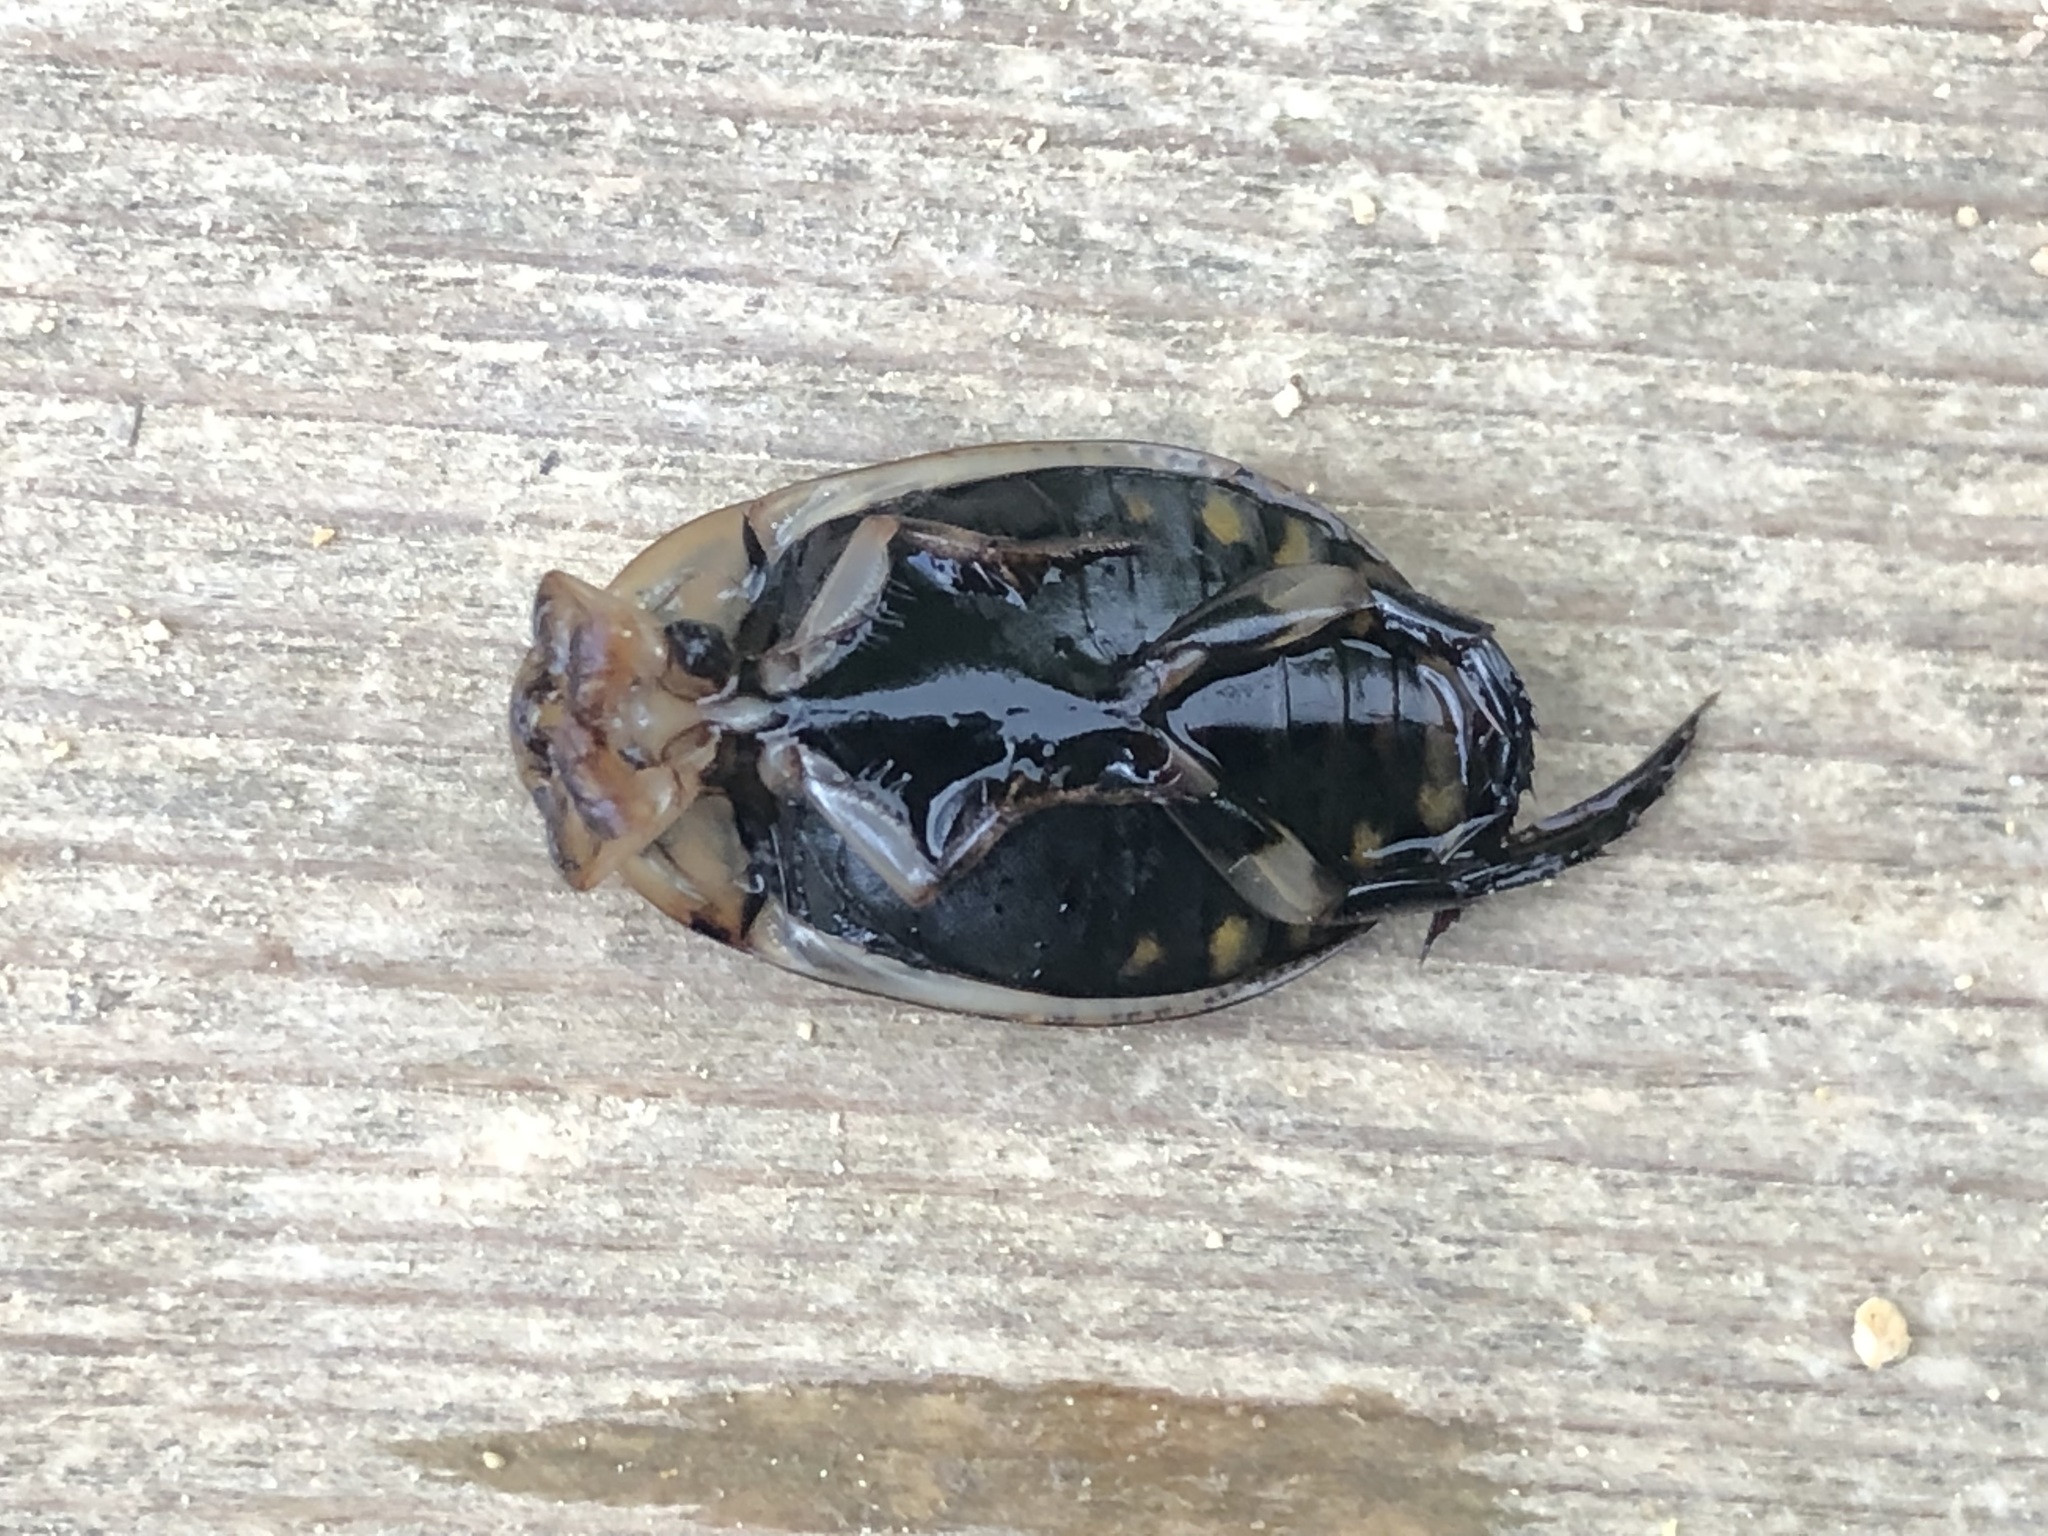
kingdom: Animalia
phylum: Arthropoda
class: Insecta
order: Coleoptera
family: Dytiscidae
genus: Acilius
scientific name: Acilius sulcatus
